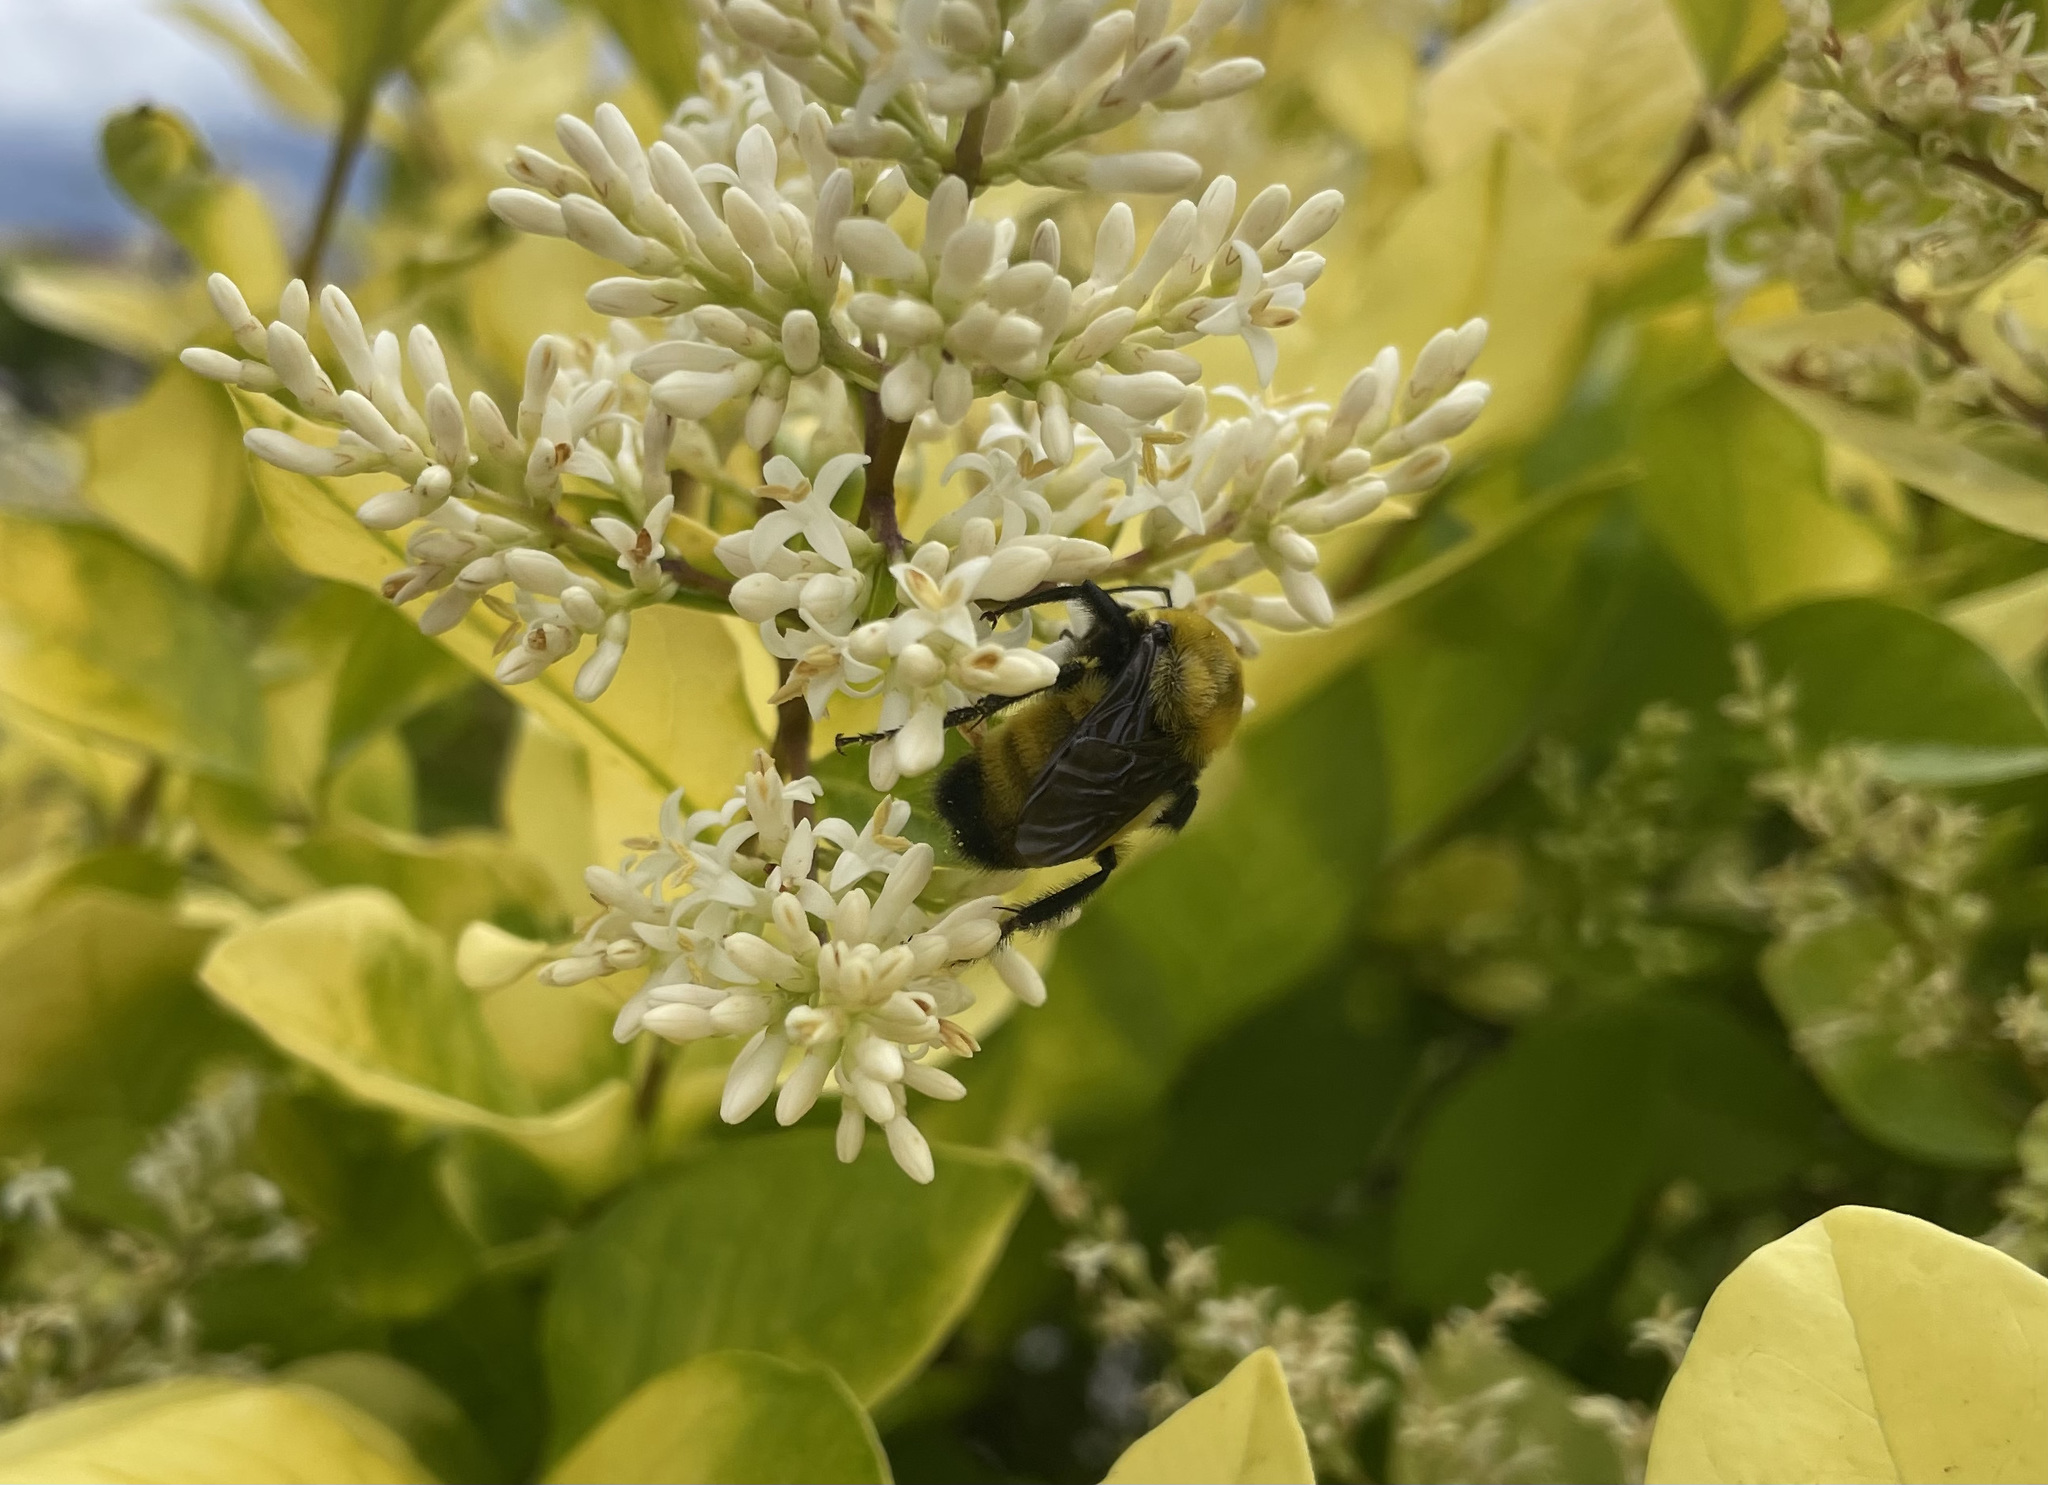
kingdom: Animalia
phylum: Arthropoda
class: Insecta
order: Hymenoptera
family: Apidae
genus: Bombus
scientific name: Bombus morrisoni
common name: Morrison bumble bee
